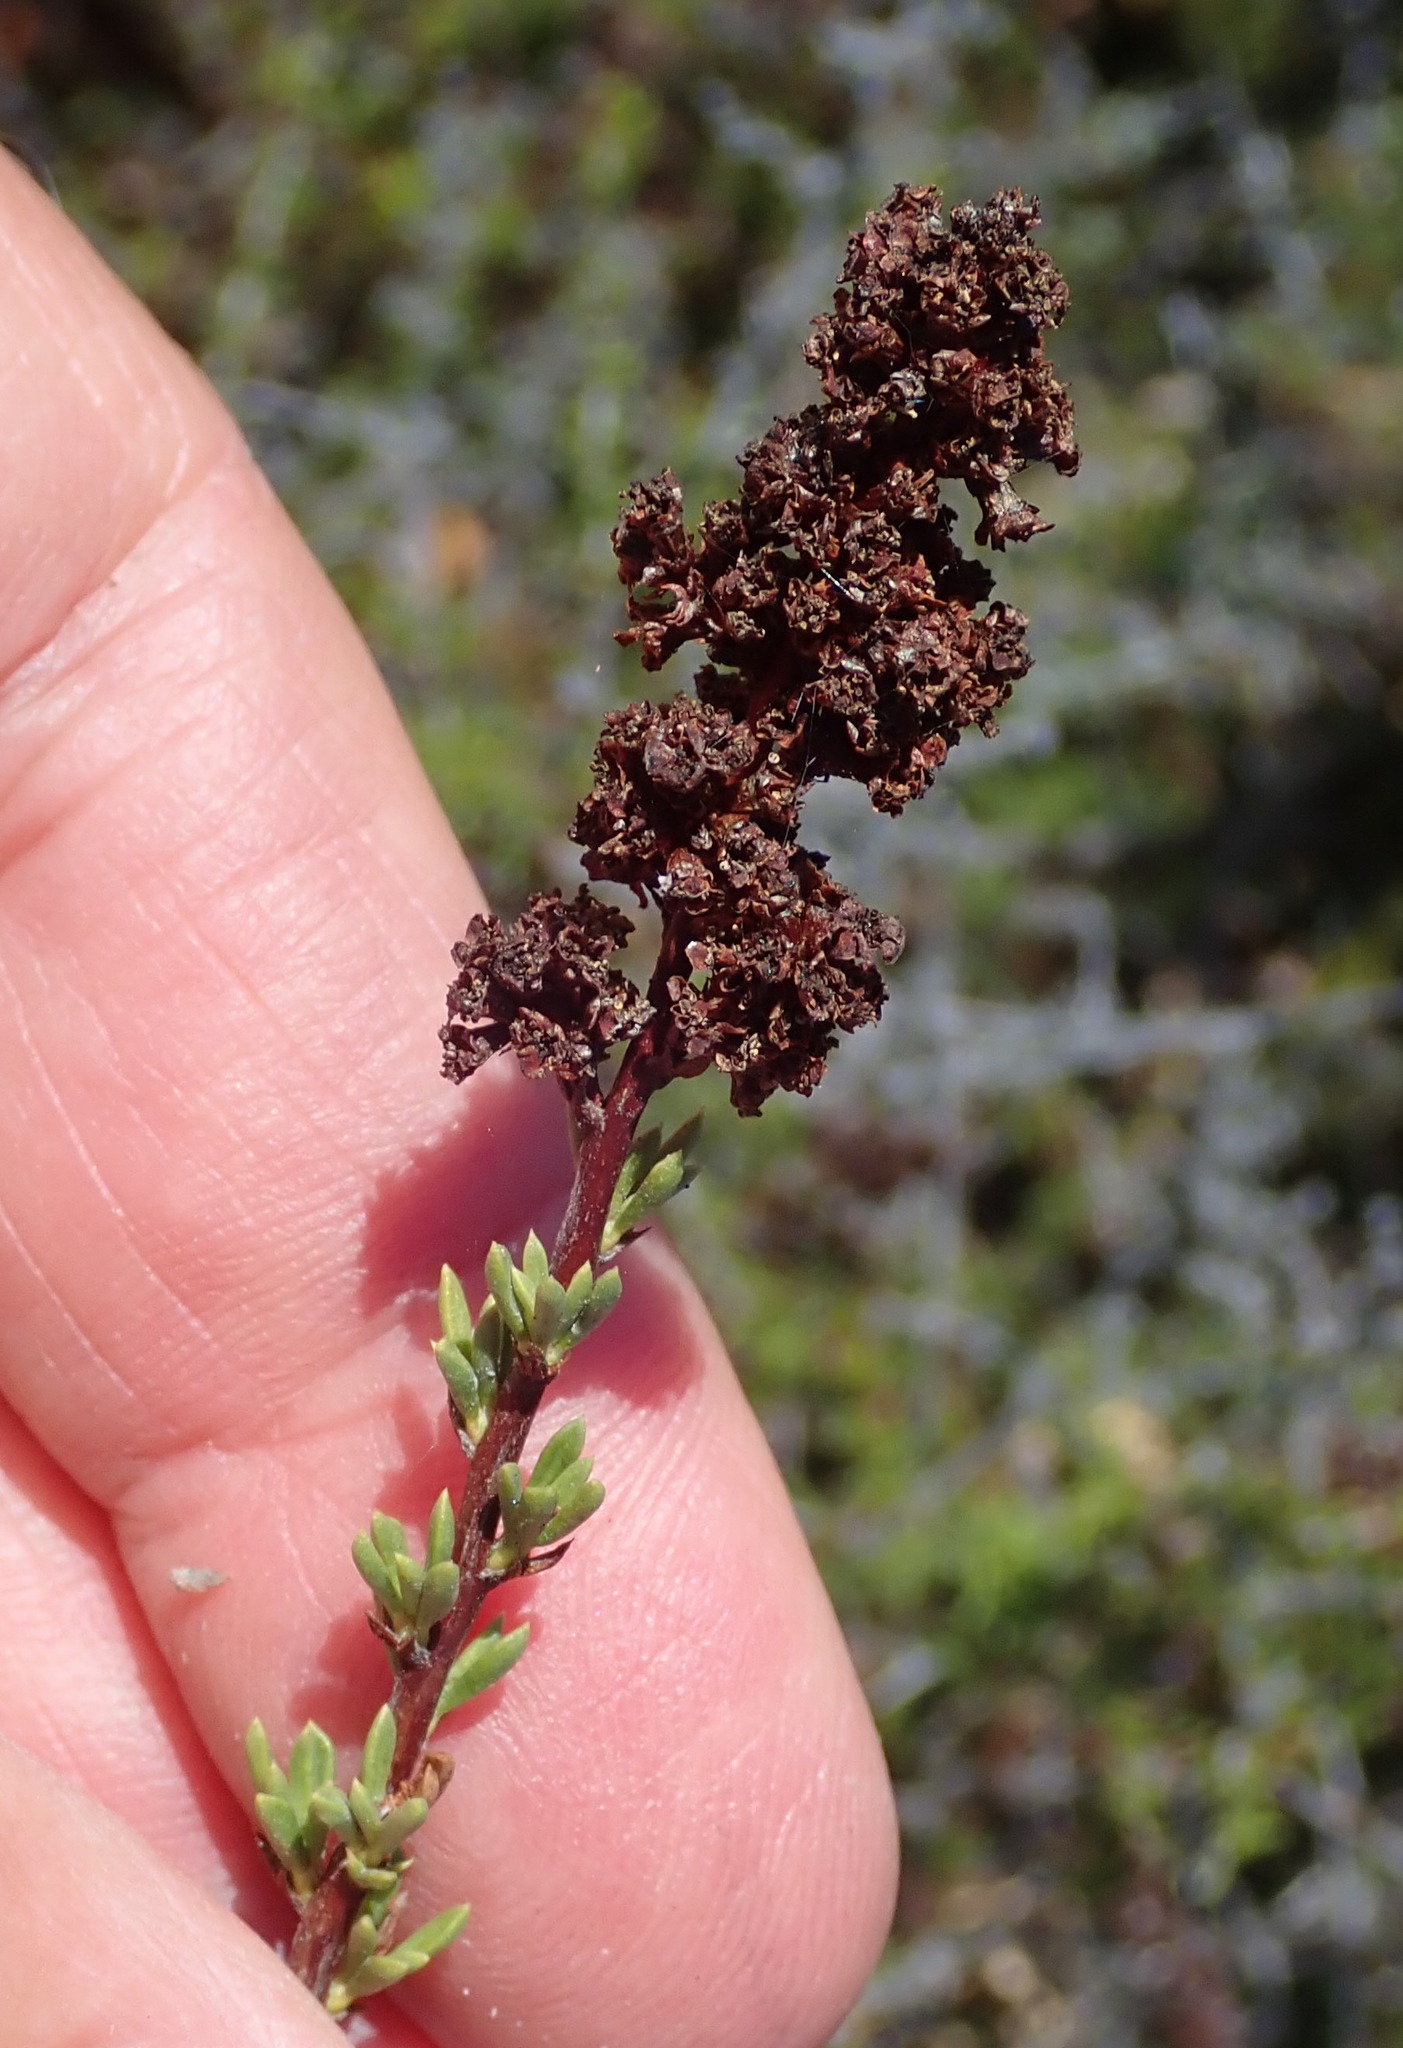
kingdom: Plantae
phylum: Tracheophyta
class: Magnoliopsida
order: Rosales
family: Rosaceae
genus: Adenostoma
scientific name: Adenostoma fasciculatum
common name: Chamise
